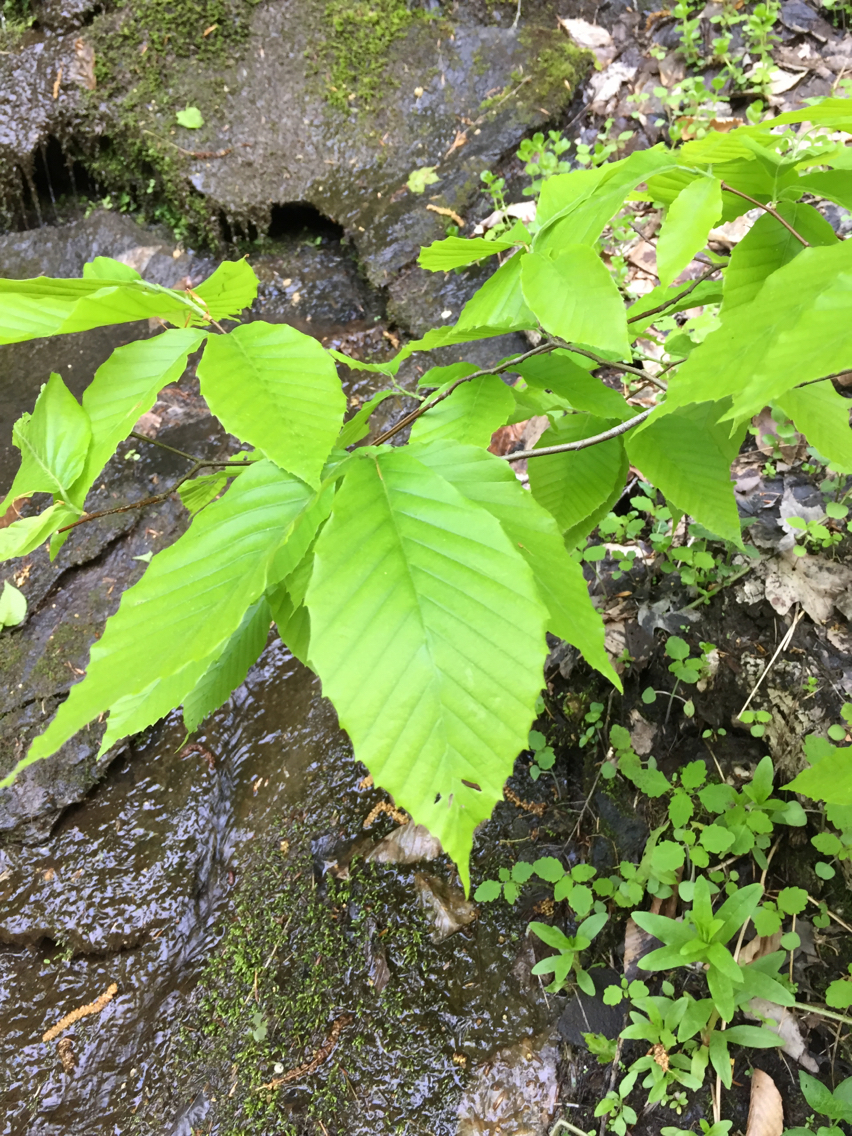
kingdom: Plantae
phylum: Tracheophyta
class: Magnoliopsida
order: Fagales
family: Fagaceae
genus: Fagus
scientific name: Fagus grandifolia
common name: American beech
